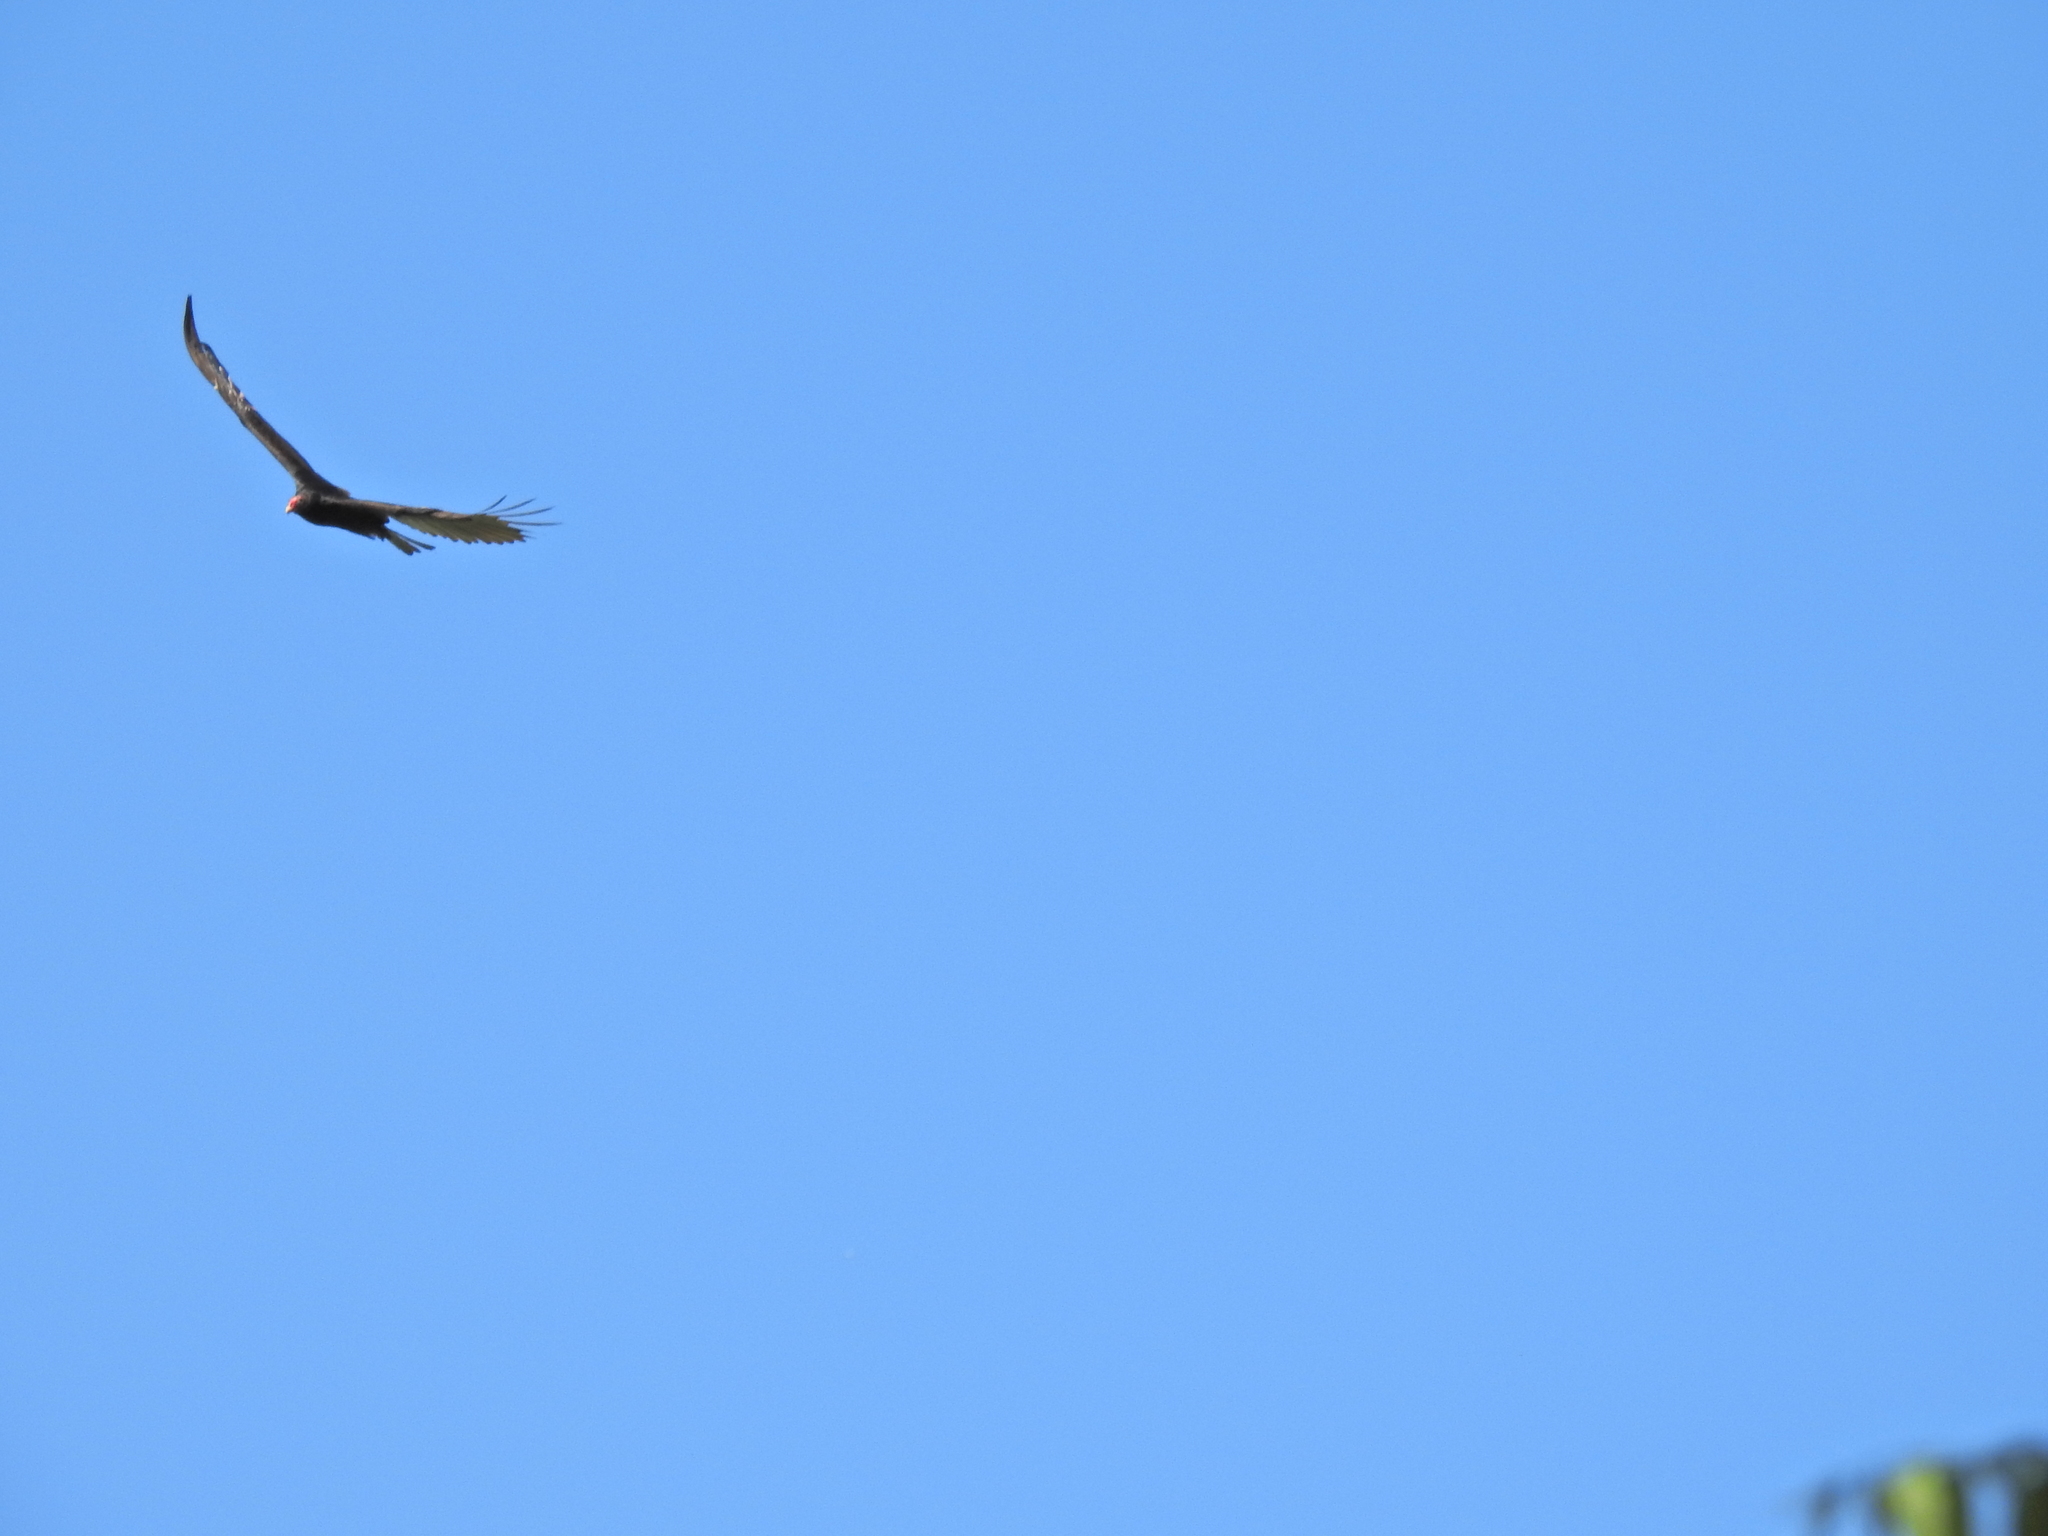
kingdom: Animalia
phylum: Chordata
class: Aves
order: Accipitriformes
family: Cathartidae
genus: Cathartes
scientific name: Cathartes aura
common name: Turkey vulture
